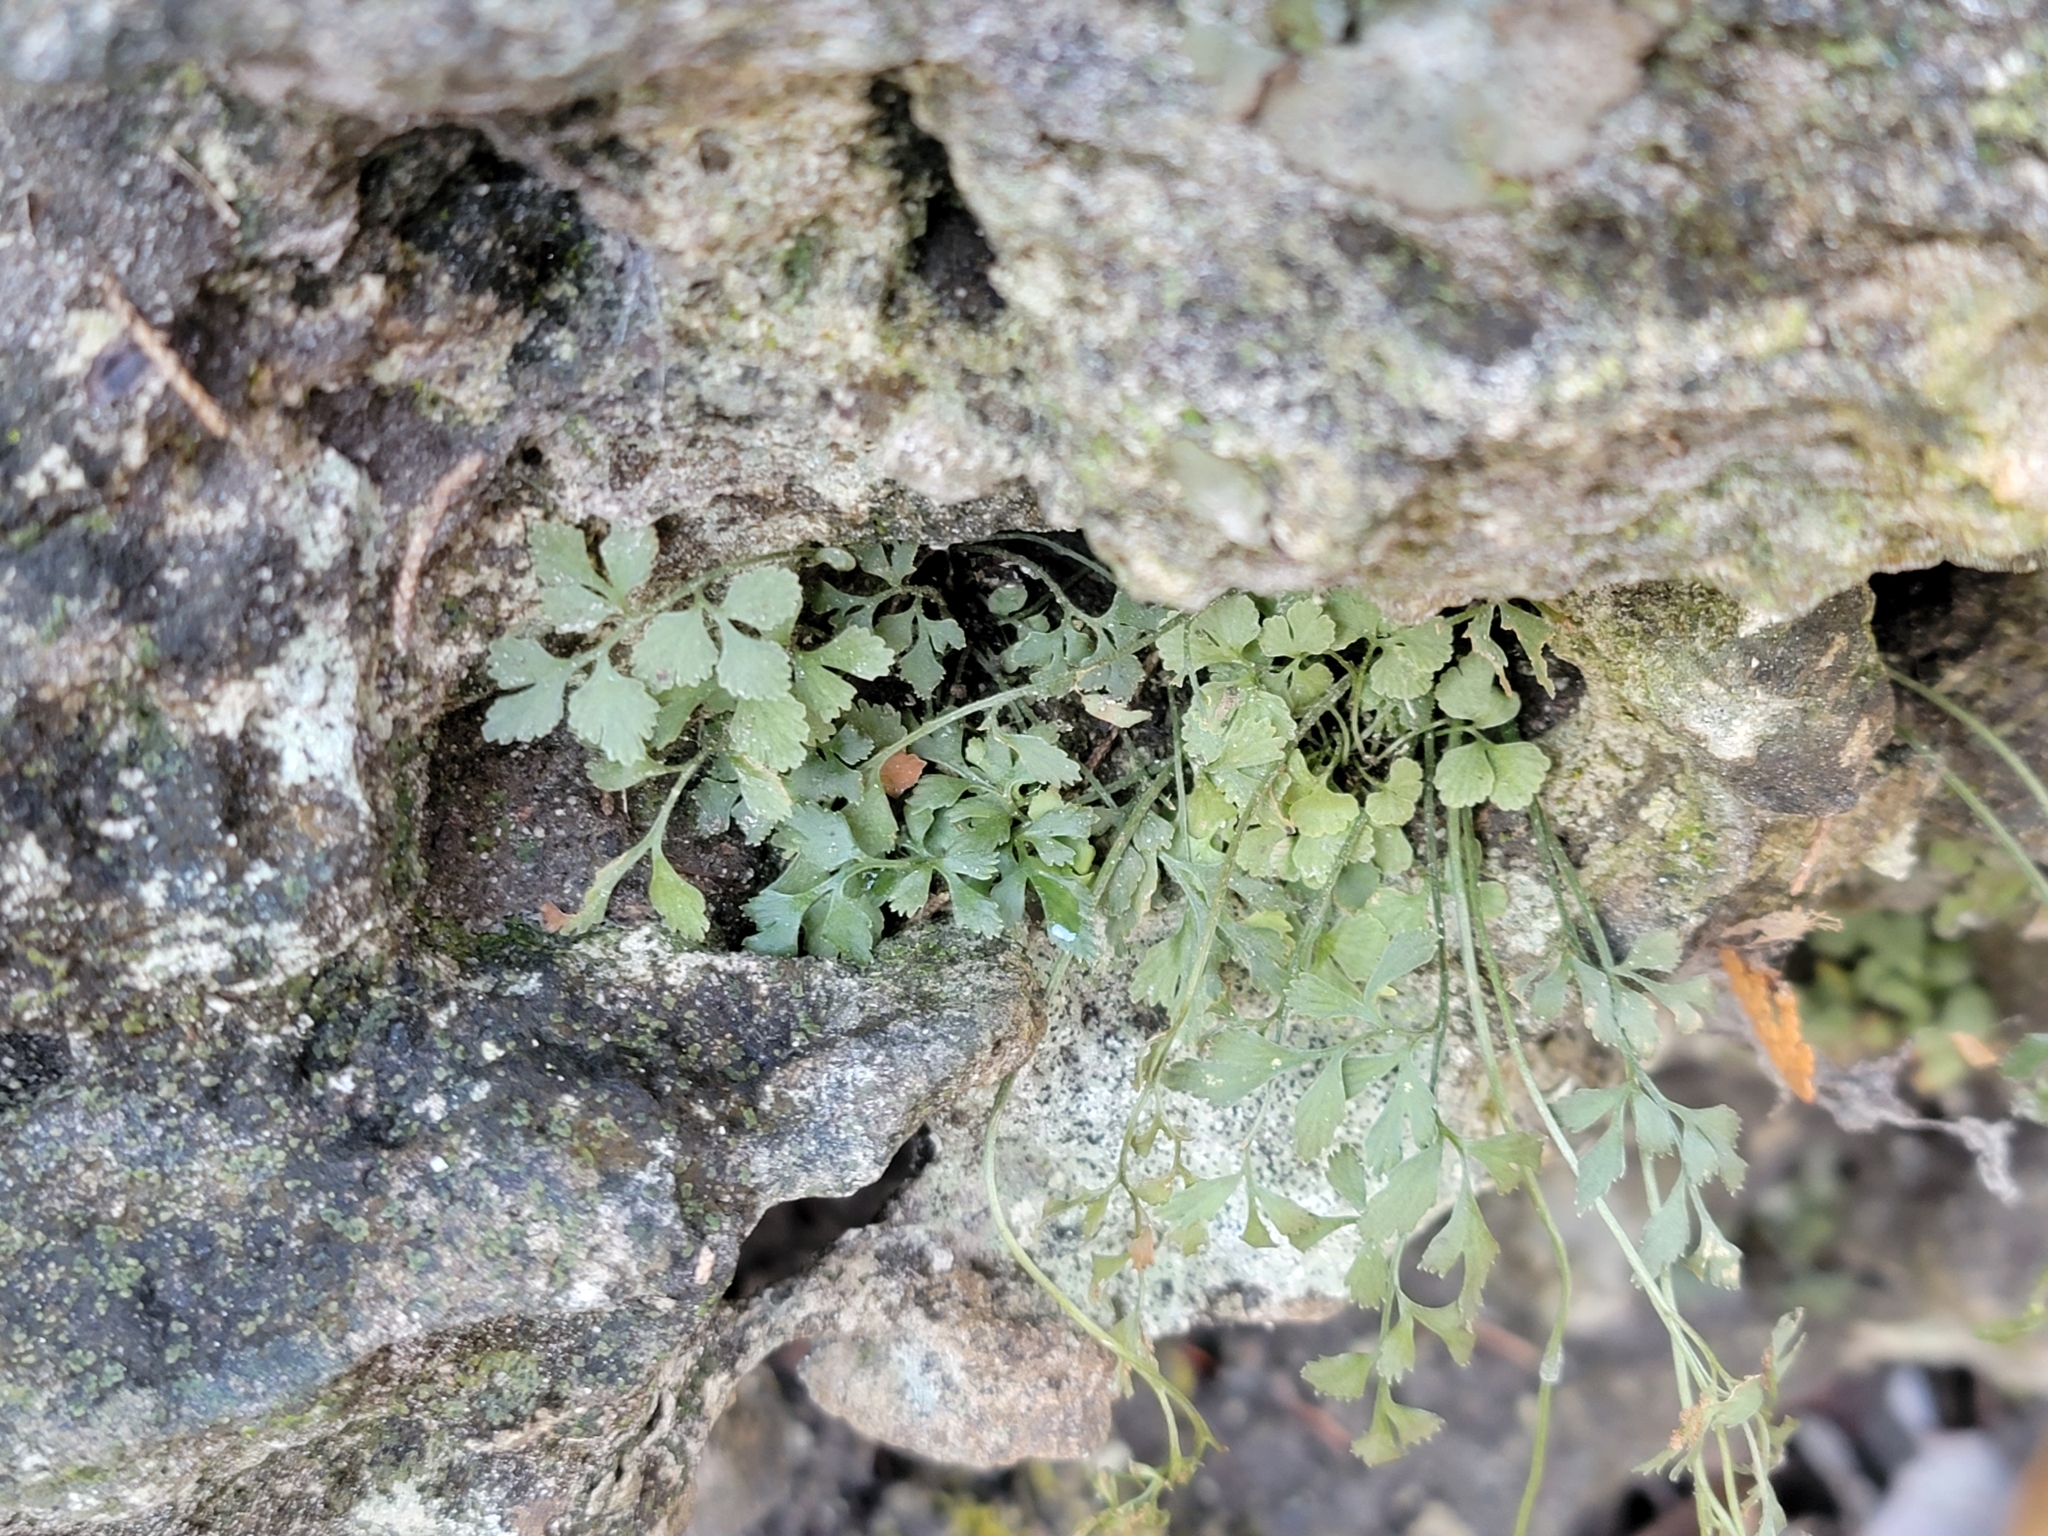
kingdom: Plantae
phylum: Tracheophyta
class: Polypodiopsida
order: Polypodiales
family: Aspleniaceae
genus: Asplenium
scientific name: Asplenium ruta-muraria
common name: Wall-rue
